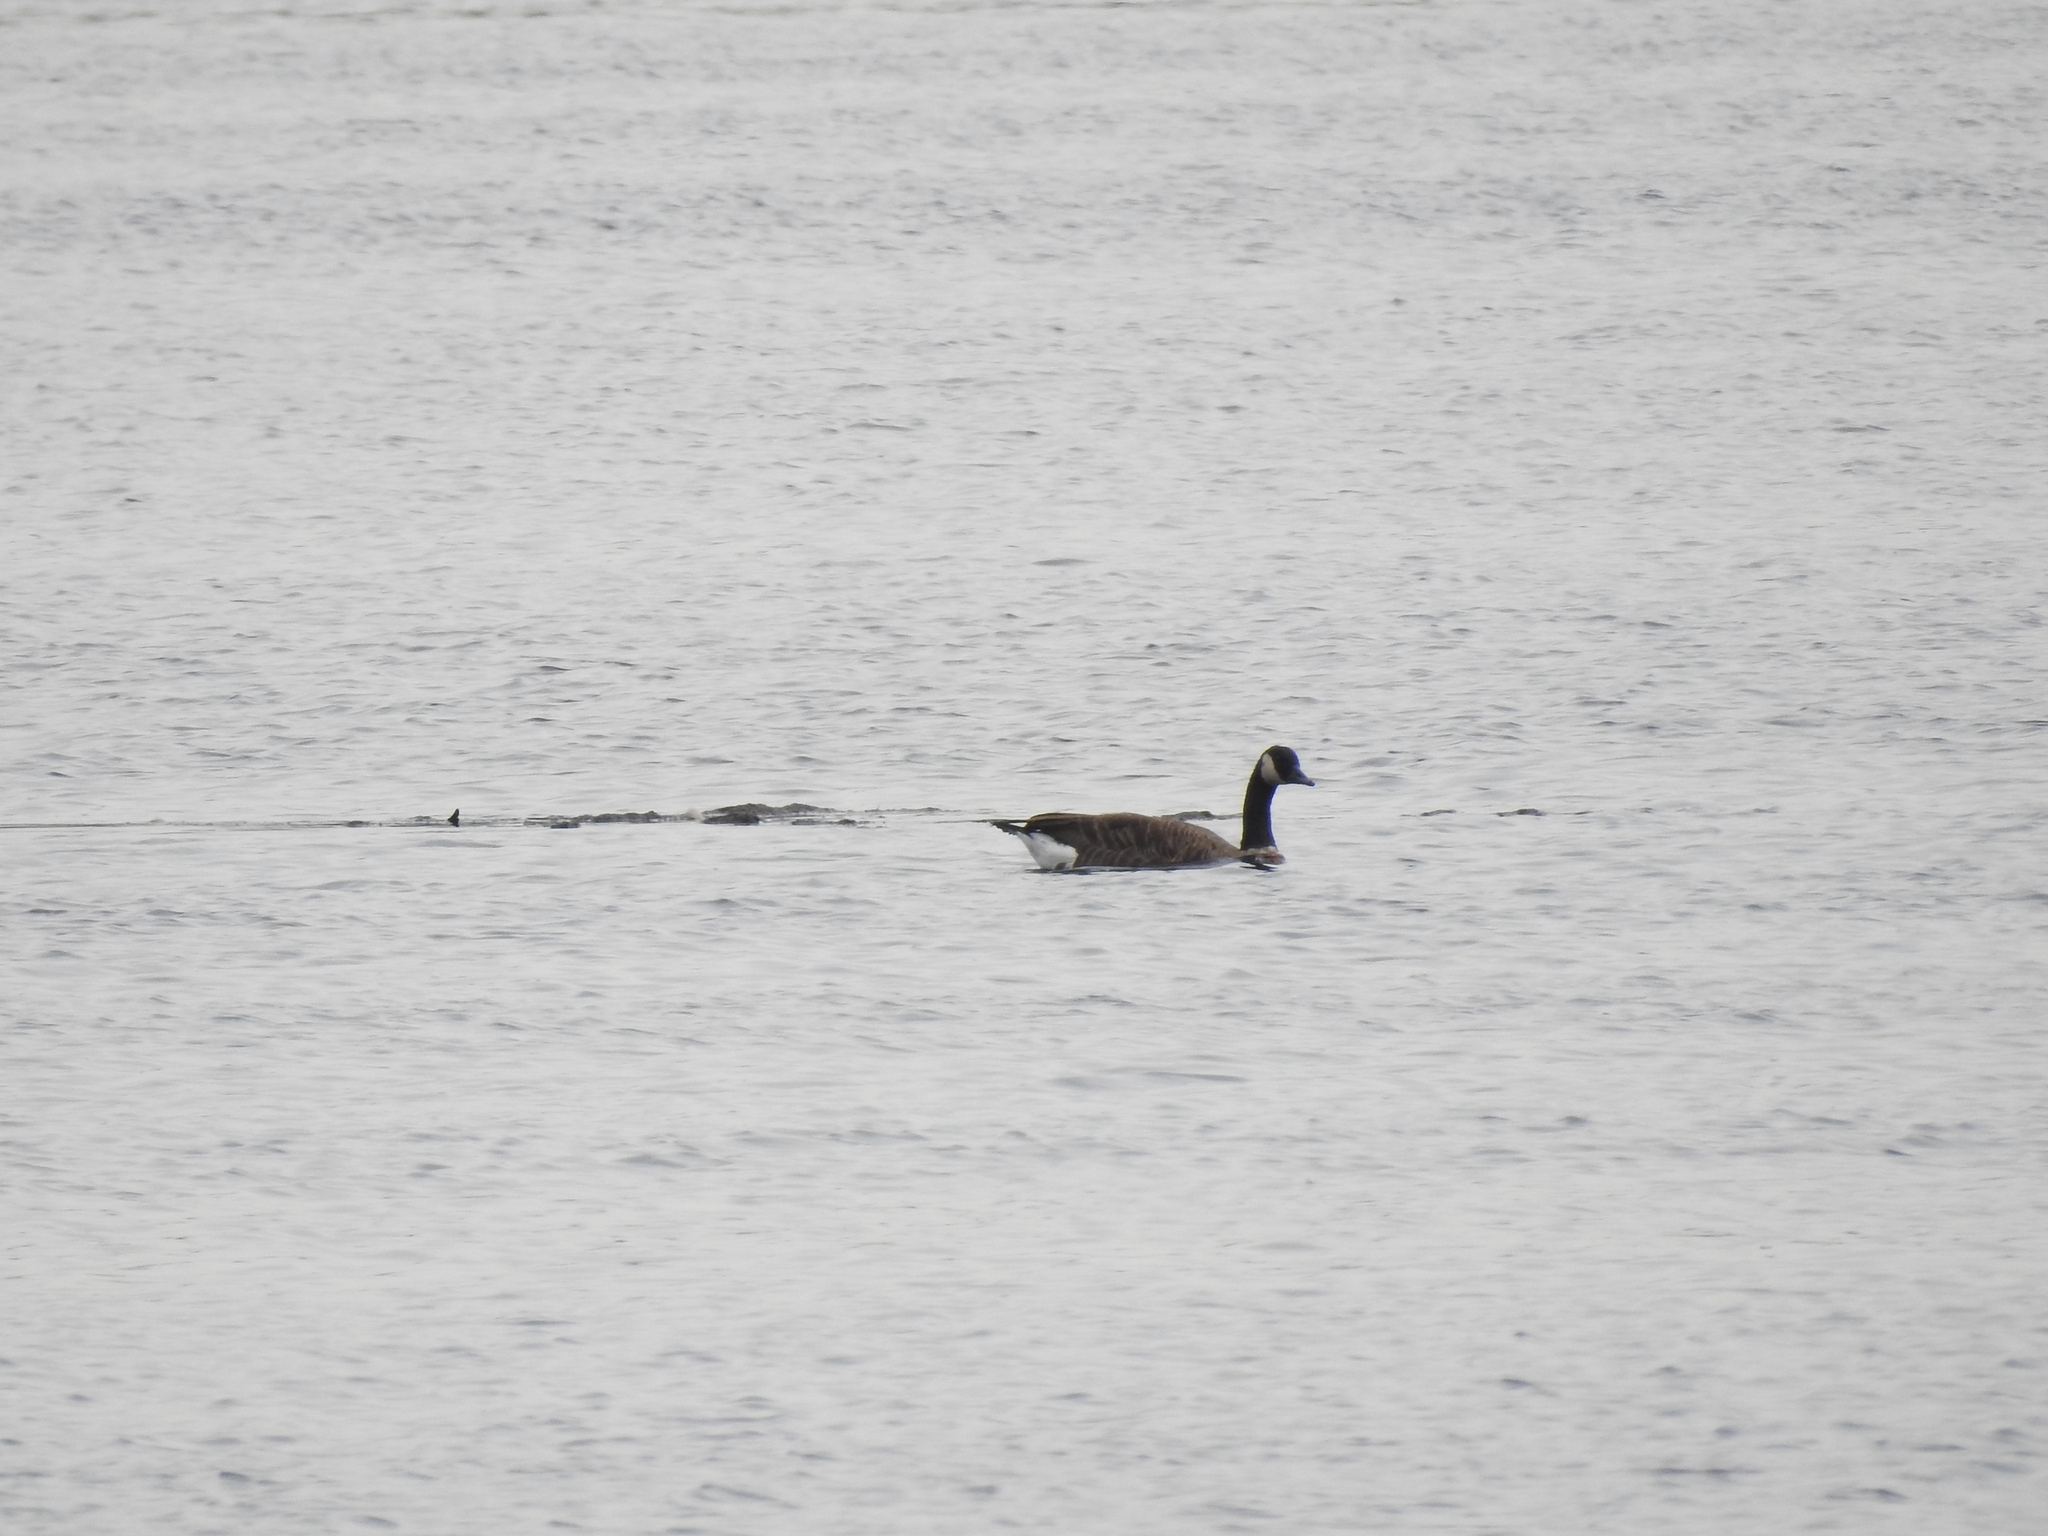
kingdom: Animalia
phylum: Chordata
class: Aves
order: Anseriformes
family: Anatidae
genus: Branta
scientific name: Branta canadensis
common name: Canada goose
